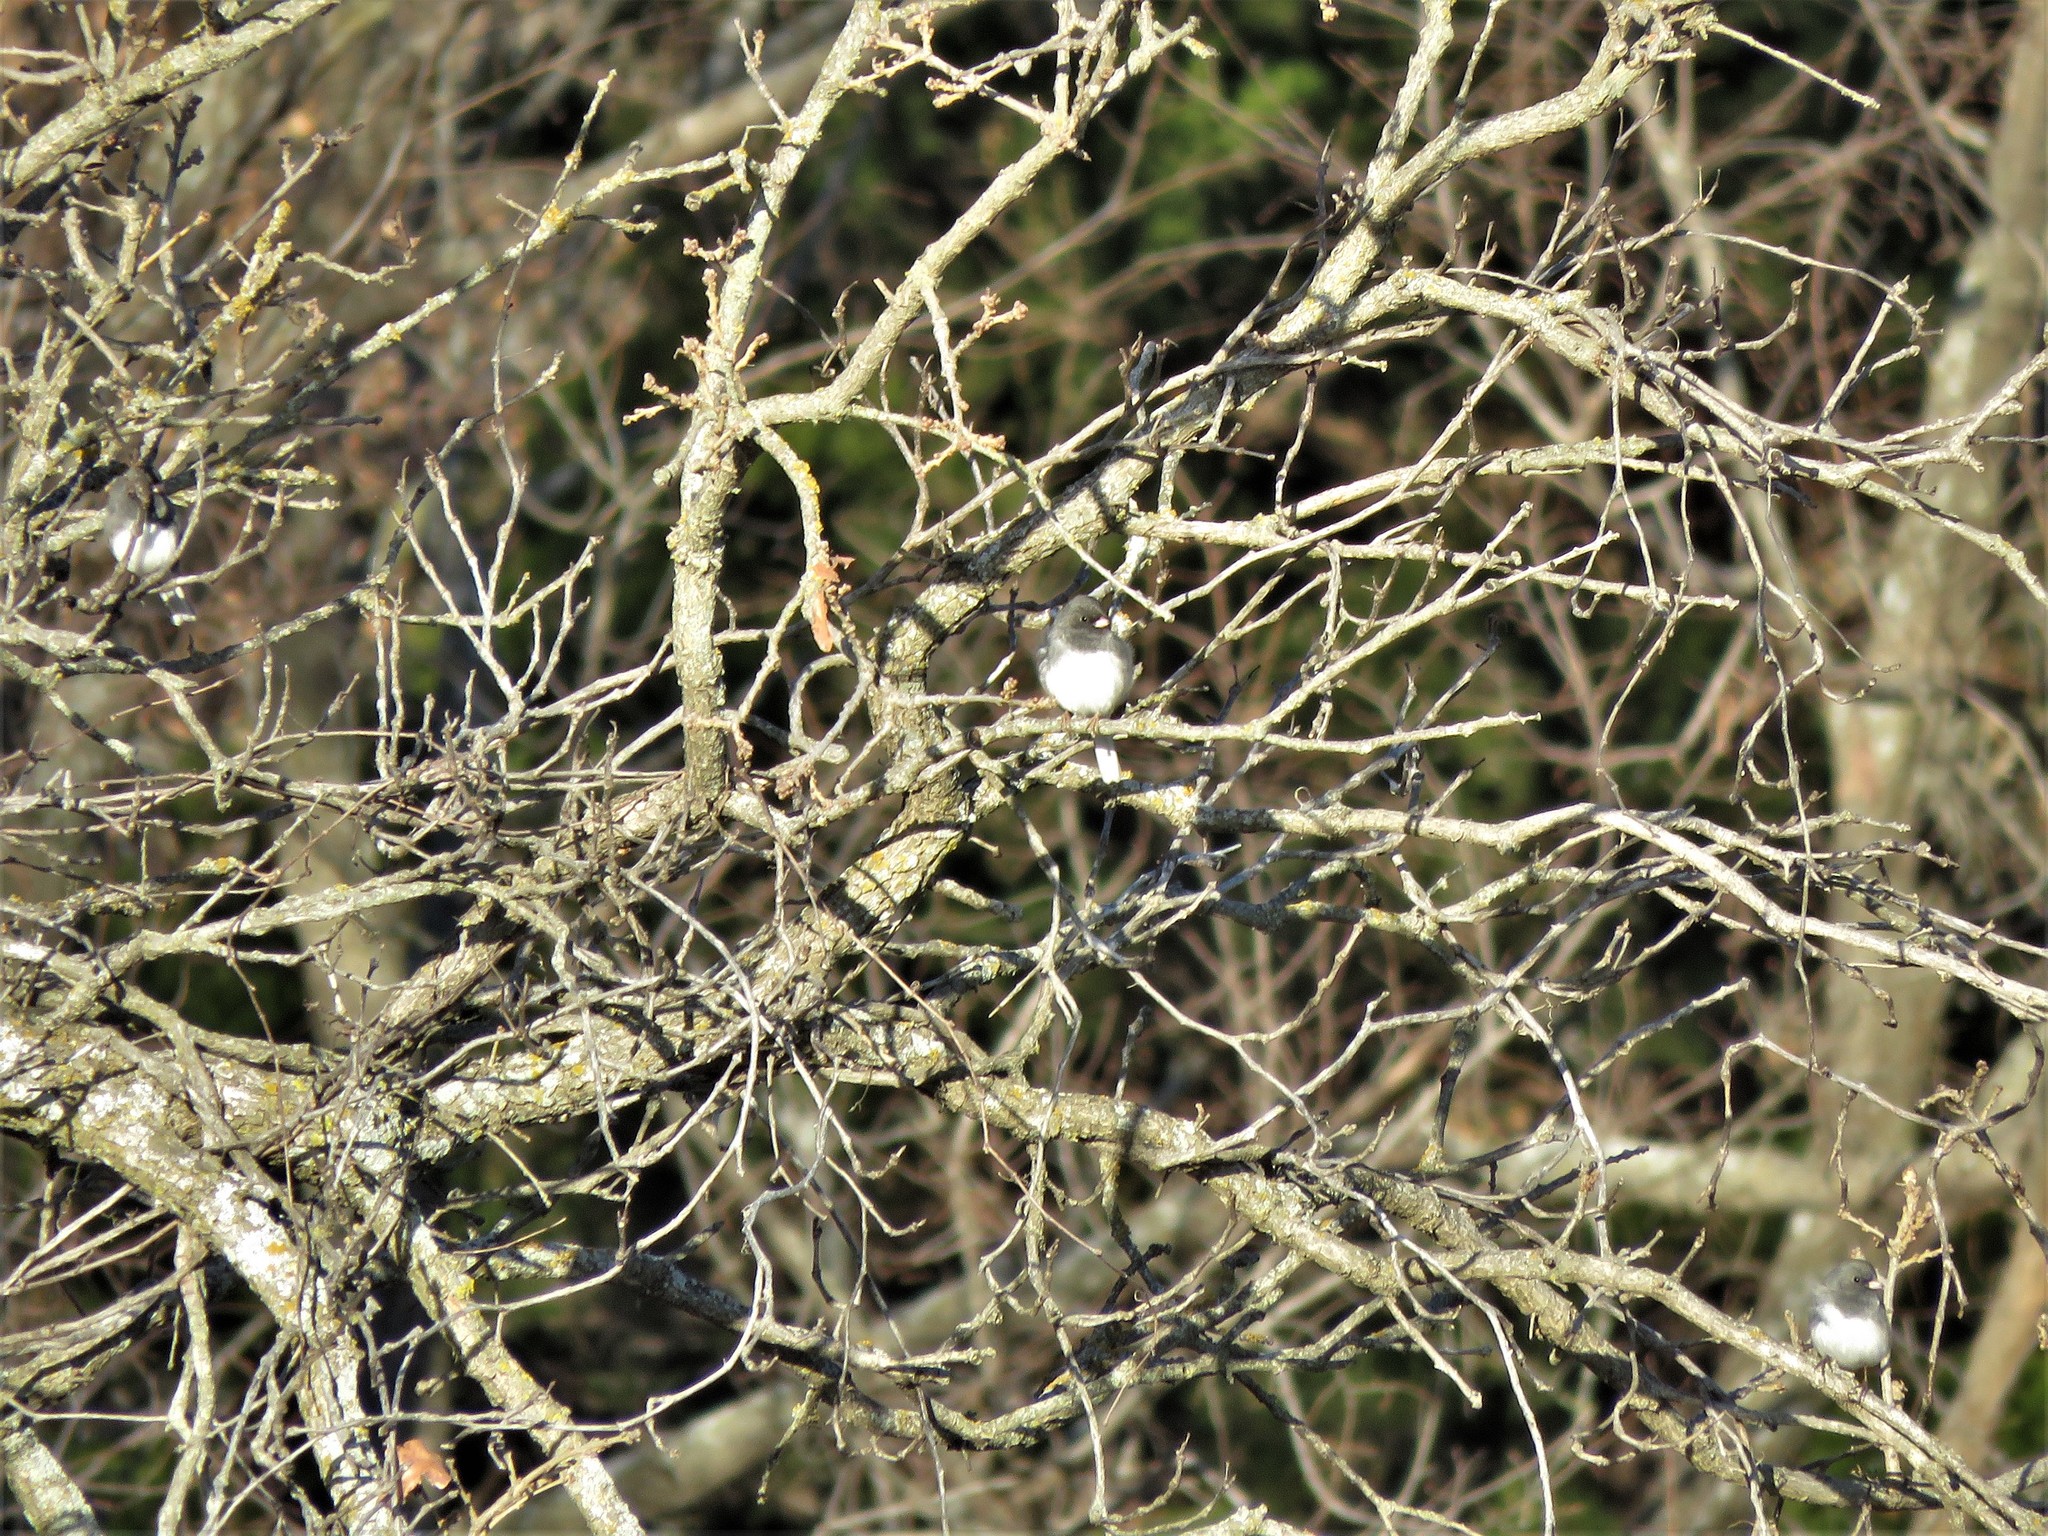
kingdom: Animalia
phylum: Chordata
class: Aves
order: Passeriformes
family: Passerellidae
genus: Junco
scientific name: Junco hyemalis
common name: Dark-eyed junco
